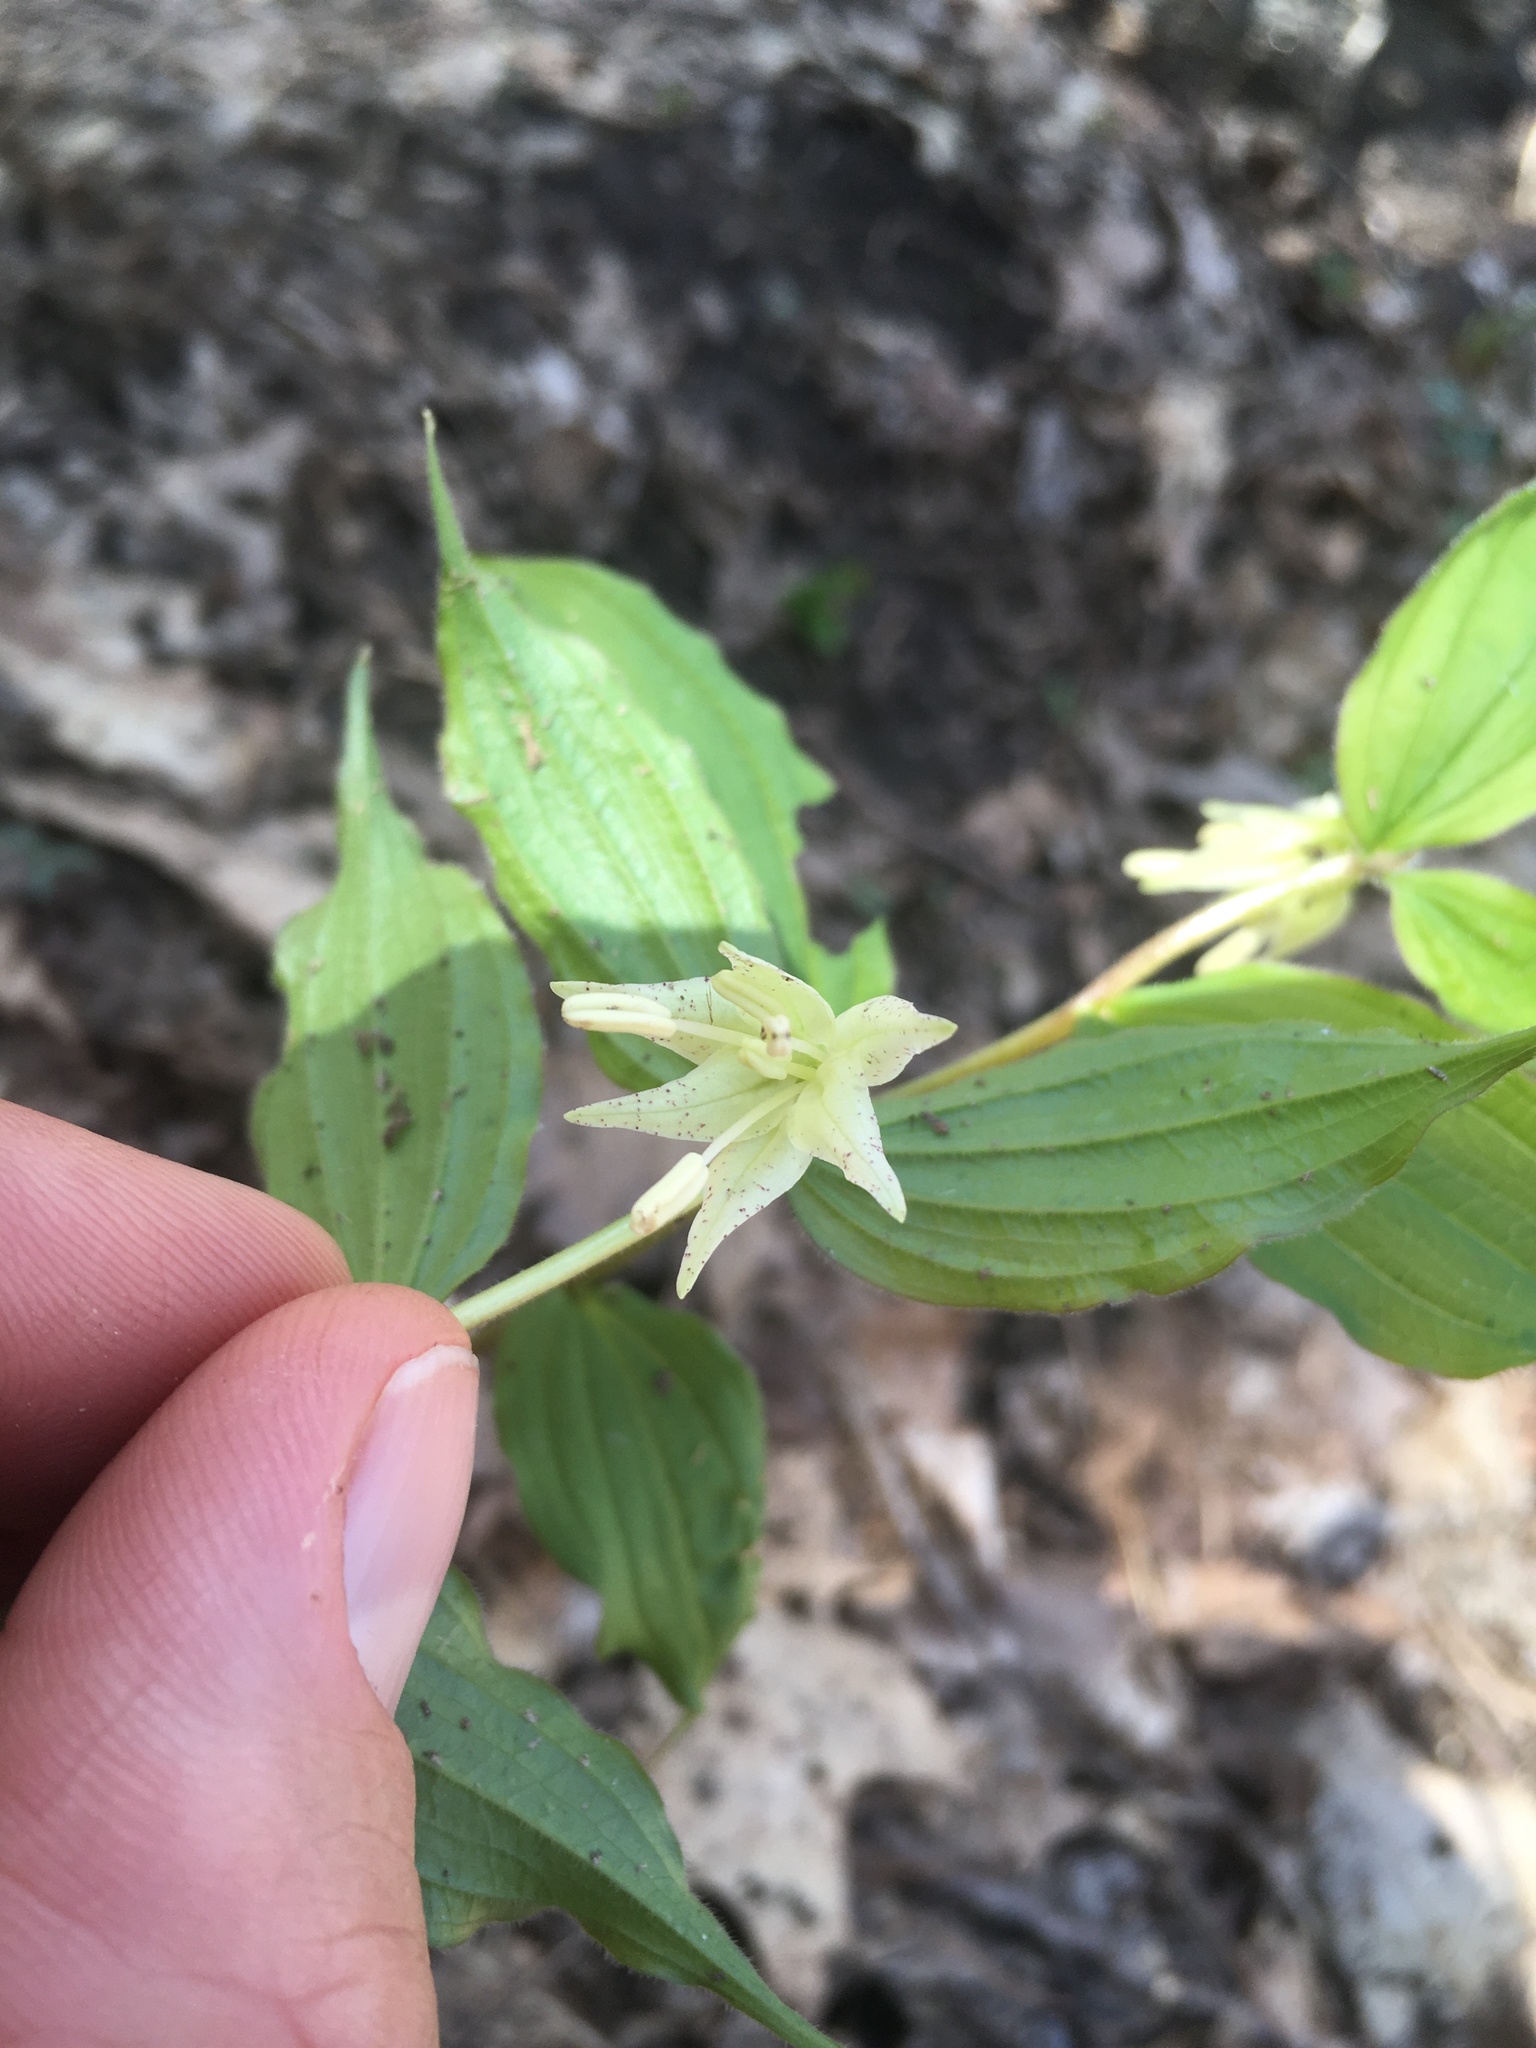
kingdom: Plantae
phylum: Tracheophyta
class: Liliopsida
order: Liliales
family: Liliaceae
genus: Prosartes
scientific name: Prosartes maculata
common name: Yellow mandarin
